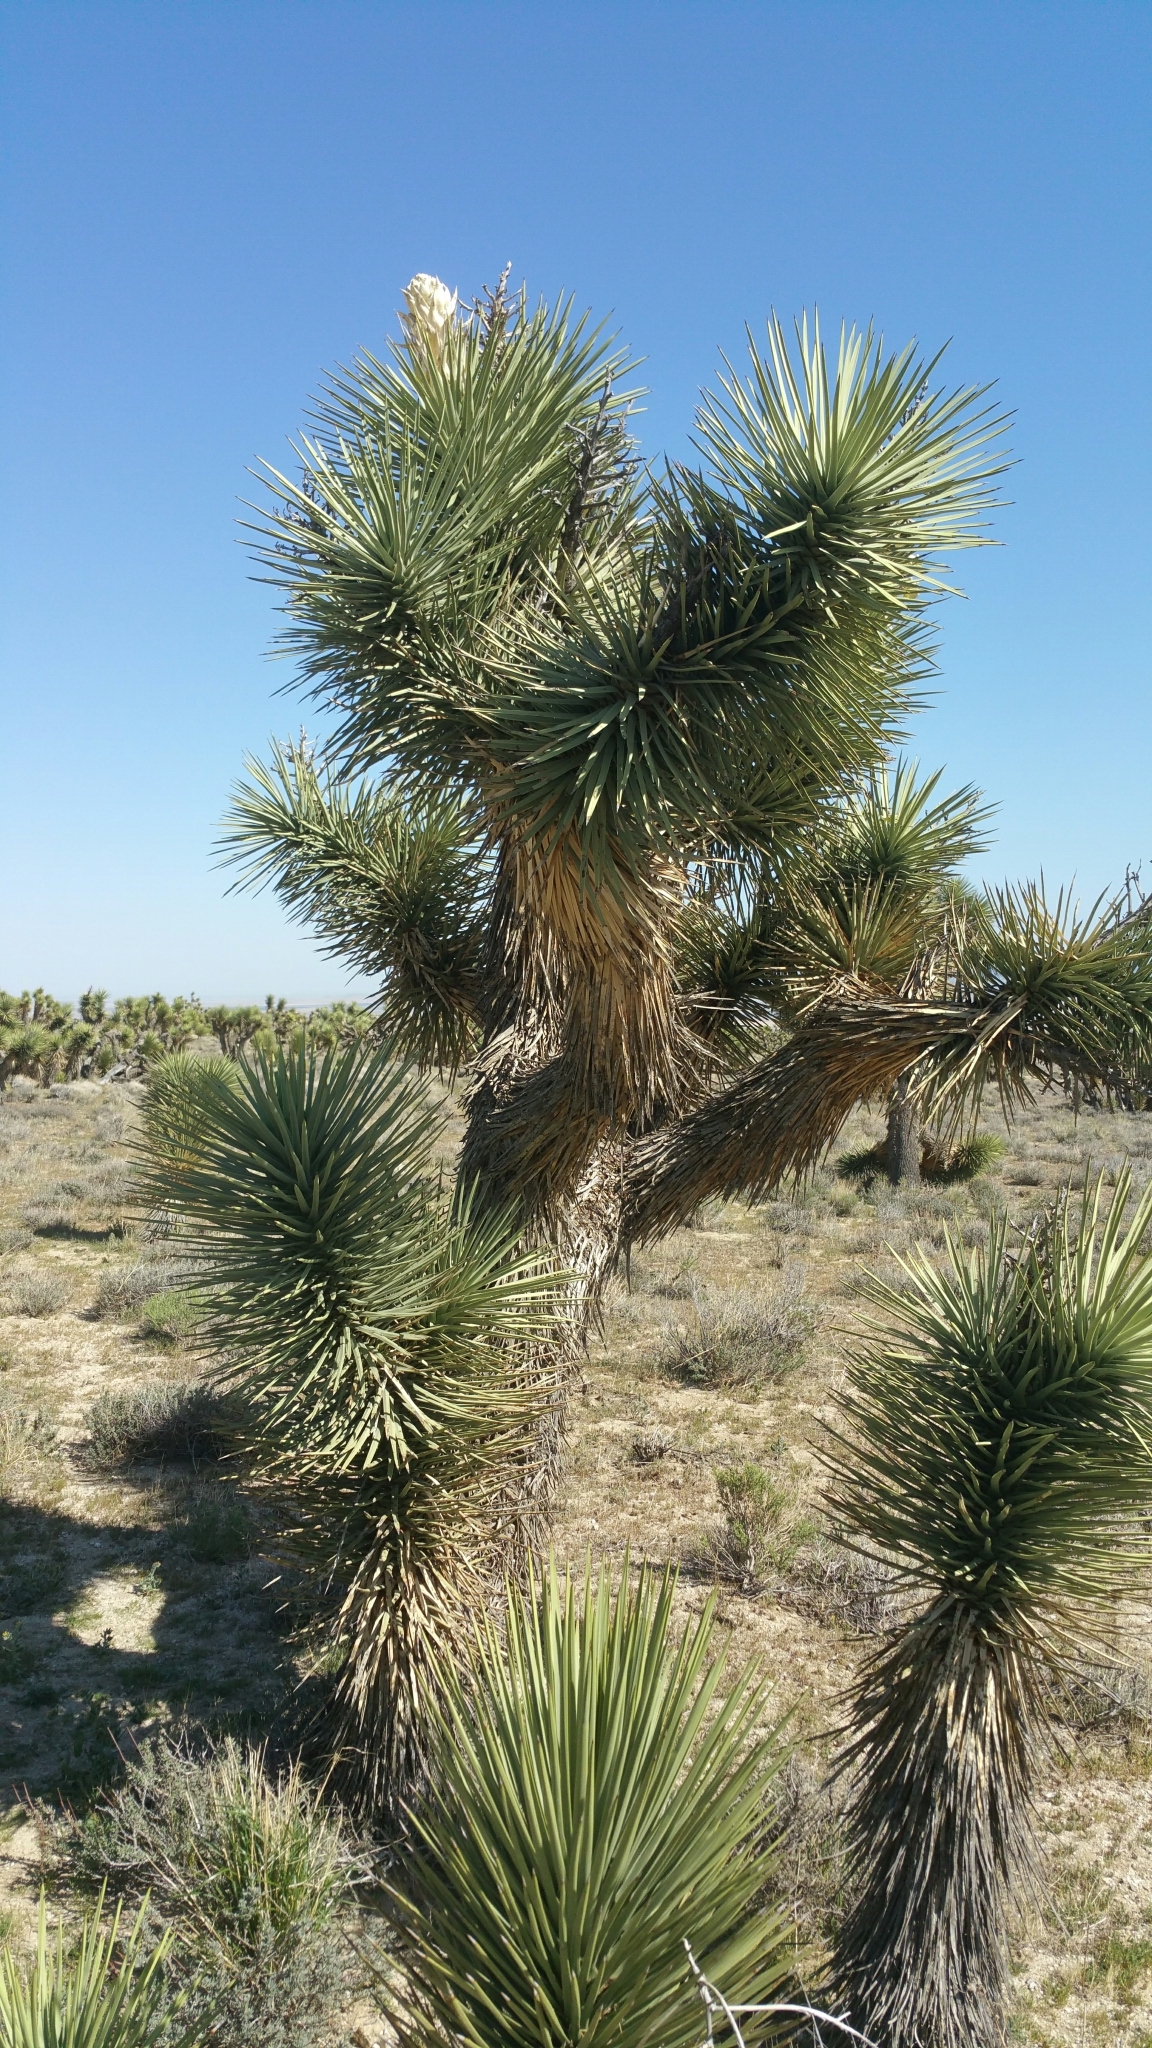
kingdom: Plantae
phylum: Tracheophyta
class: Liliopsida
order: Asparagales
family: Asparagaceae
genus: Yucca
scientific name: Yucca brevifolia
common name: Joshua tree
